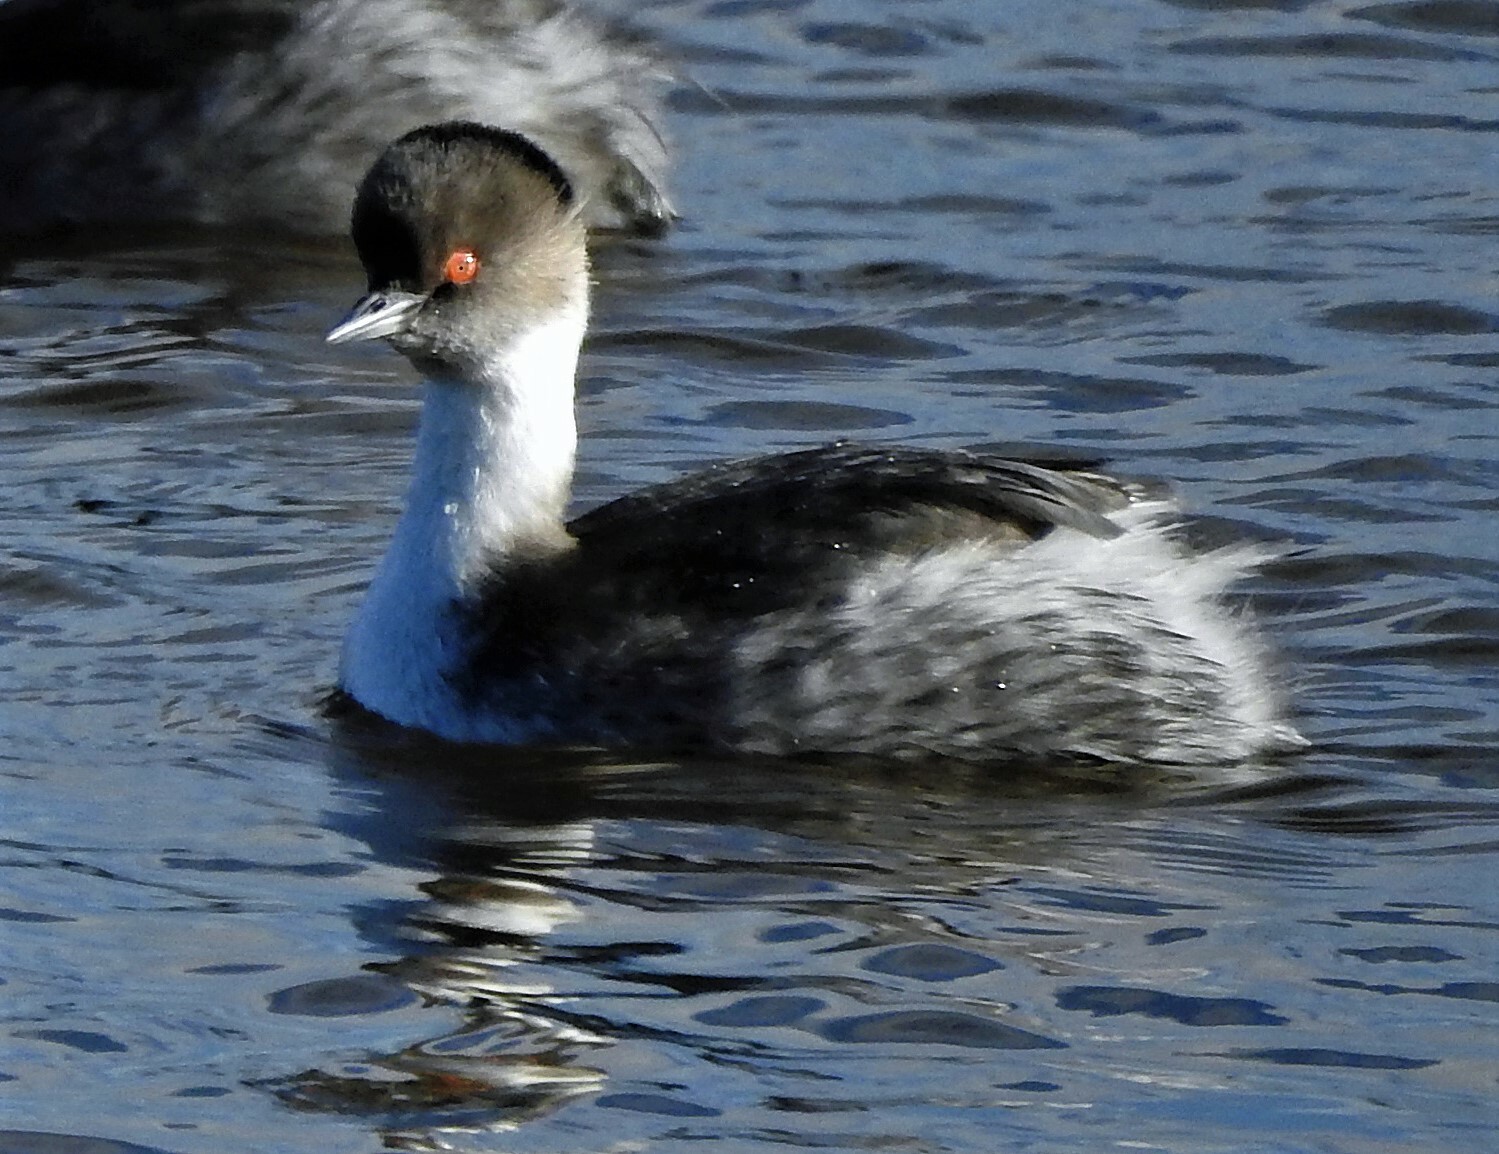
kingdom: Animalia
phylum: Chordata
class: Aves
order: Podicipediformes
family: Podicipedidae
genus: Podiceps
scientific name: Podiceps occipitalis
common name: Silvery grebe
